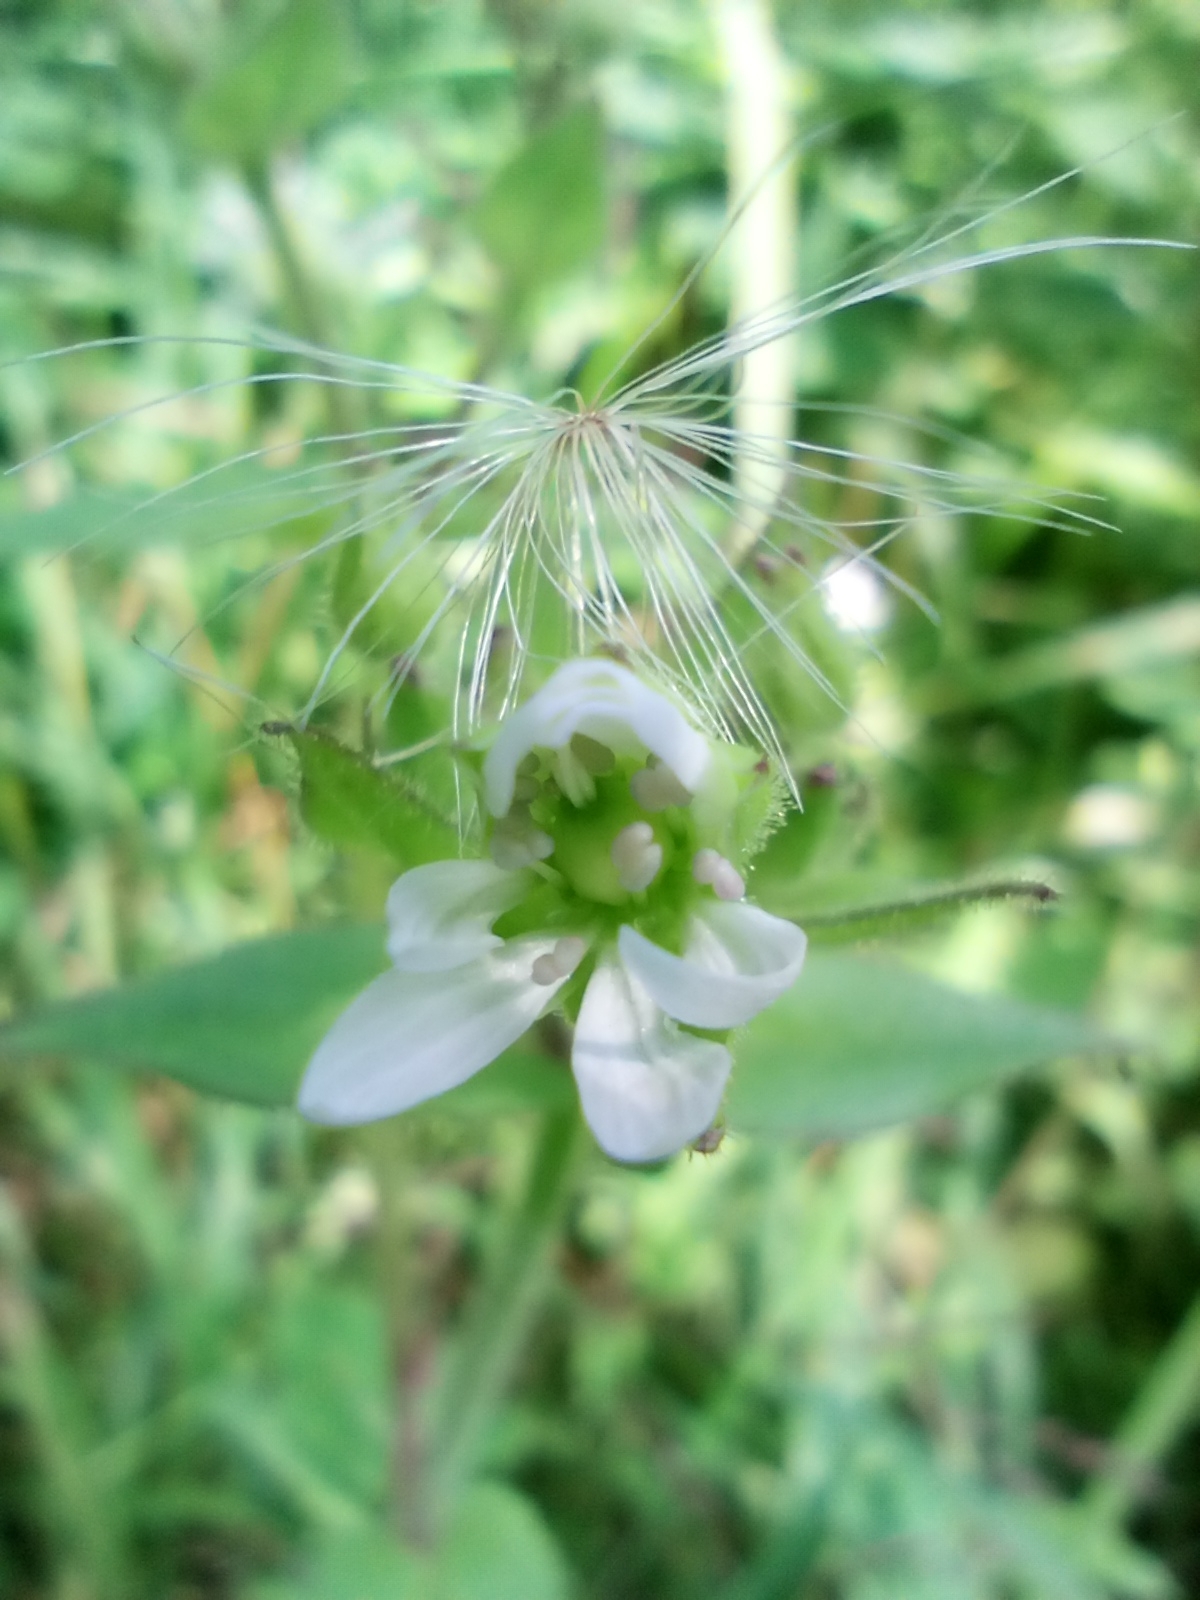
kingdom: Plantae
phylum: Tracheophyta
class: Magnoliopsida
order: Caryophyllales
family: Caryophyllaceae
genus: Stellaria
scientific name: Stellaria aquatica
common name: Water chickweed
